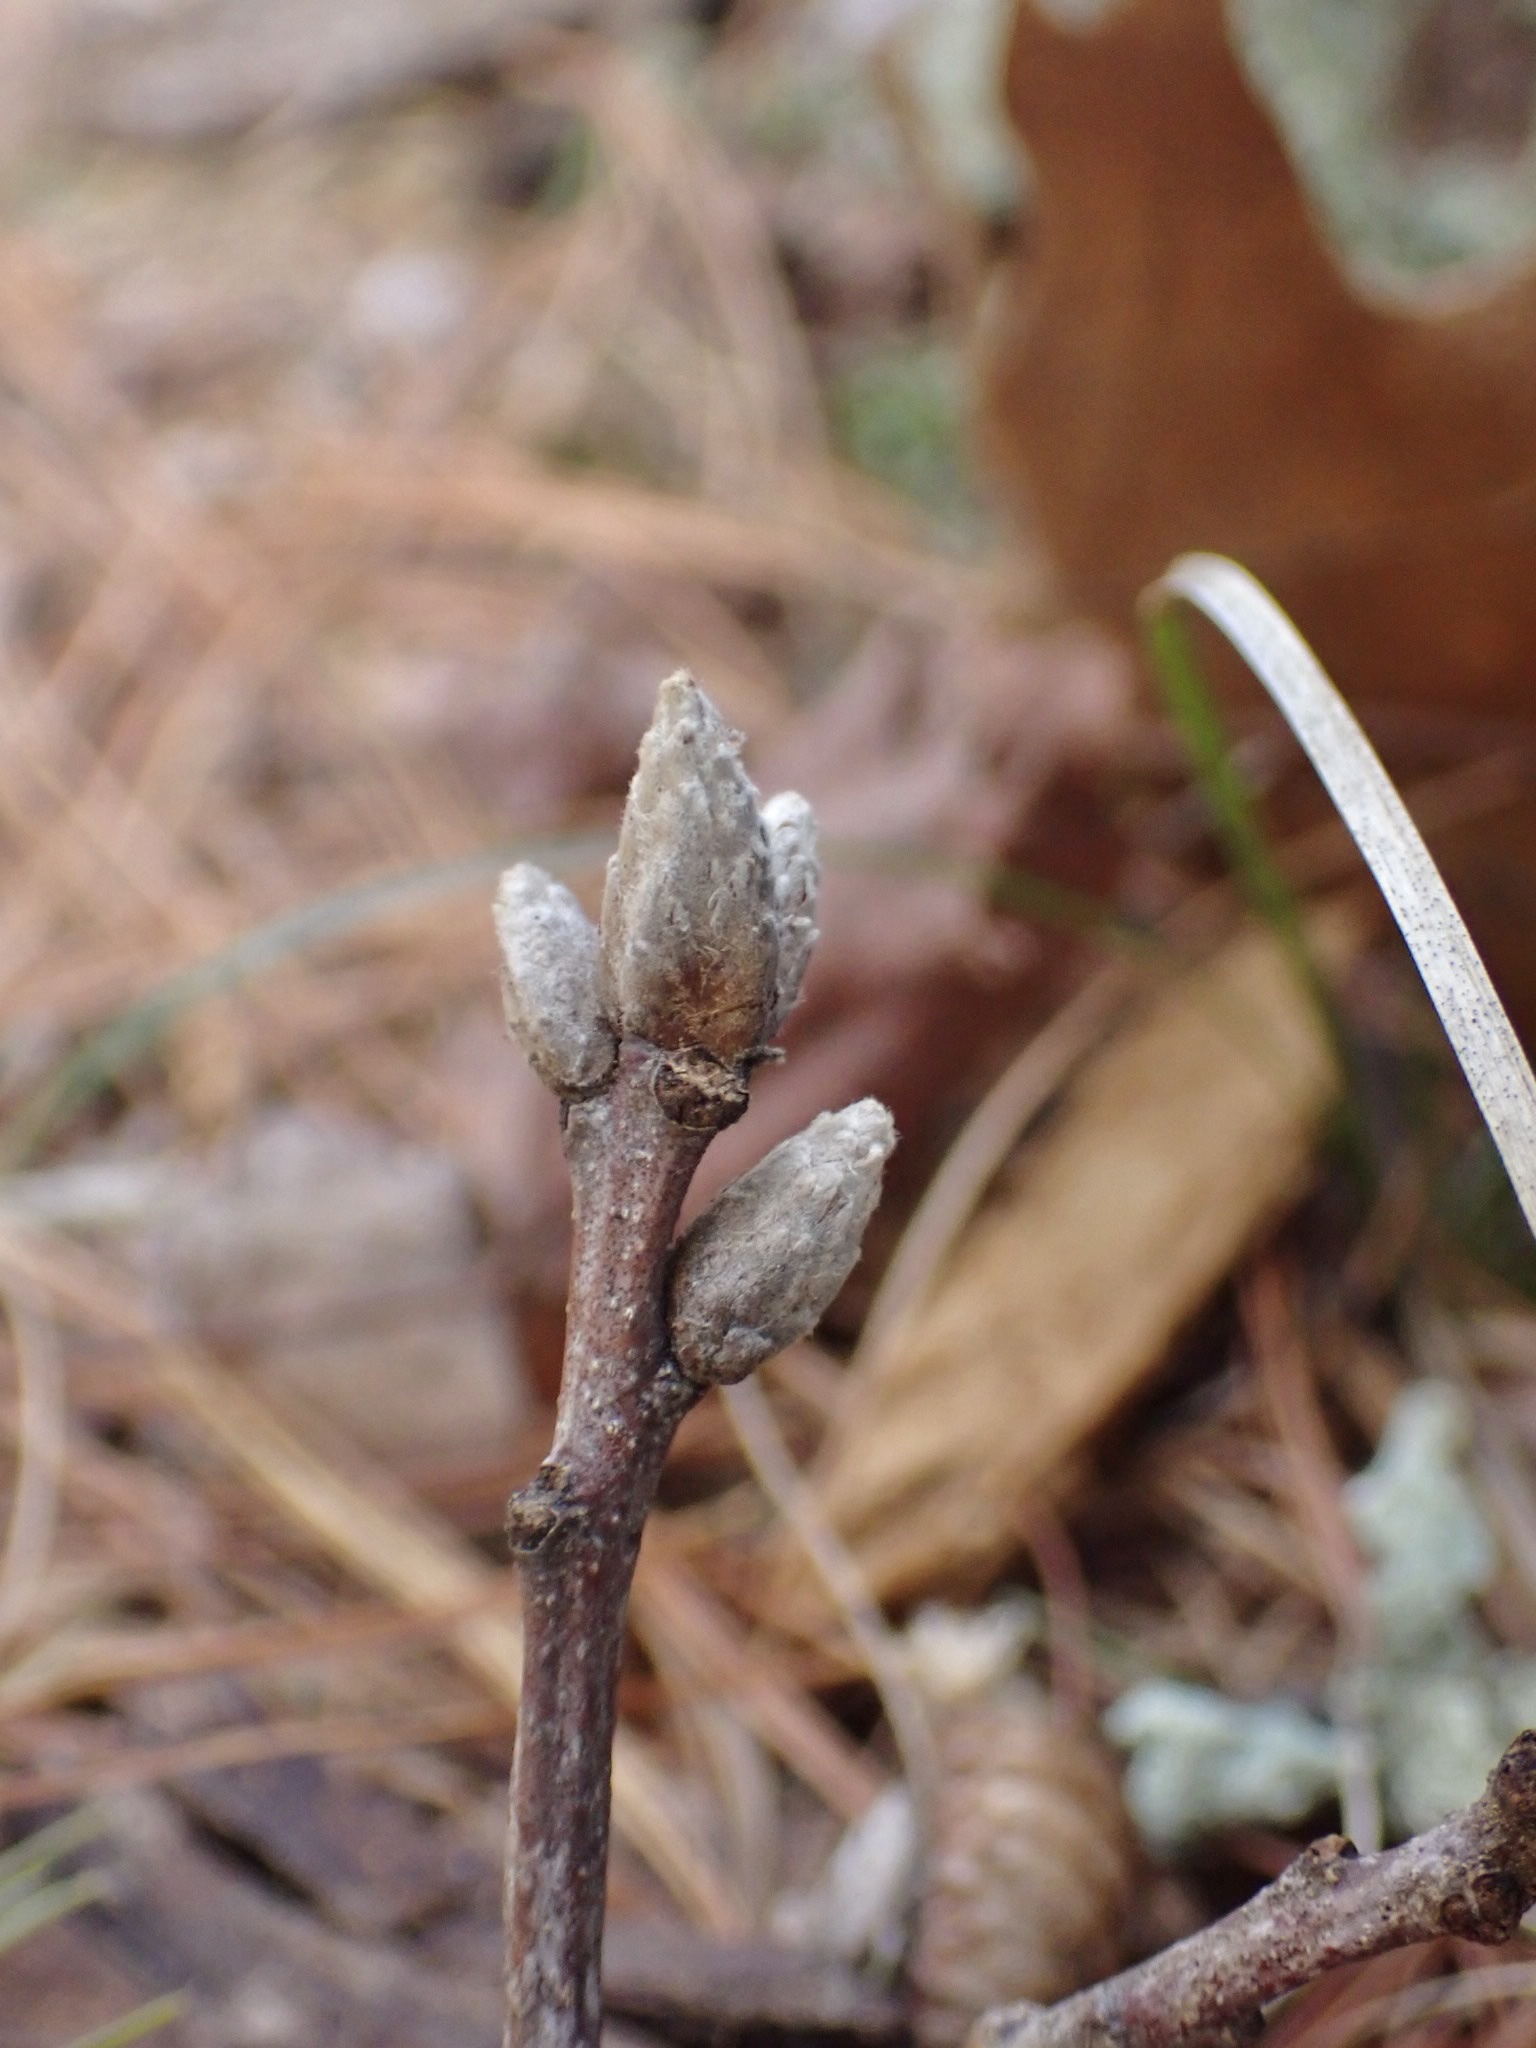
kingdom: Plantae
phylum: Tracheophyta
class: Magnoliopsida
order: Fagales
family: Fagaceae
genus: Quercus
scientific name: Quercus velutina
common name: Black oak
